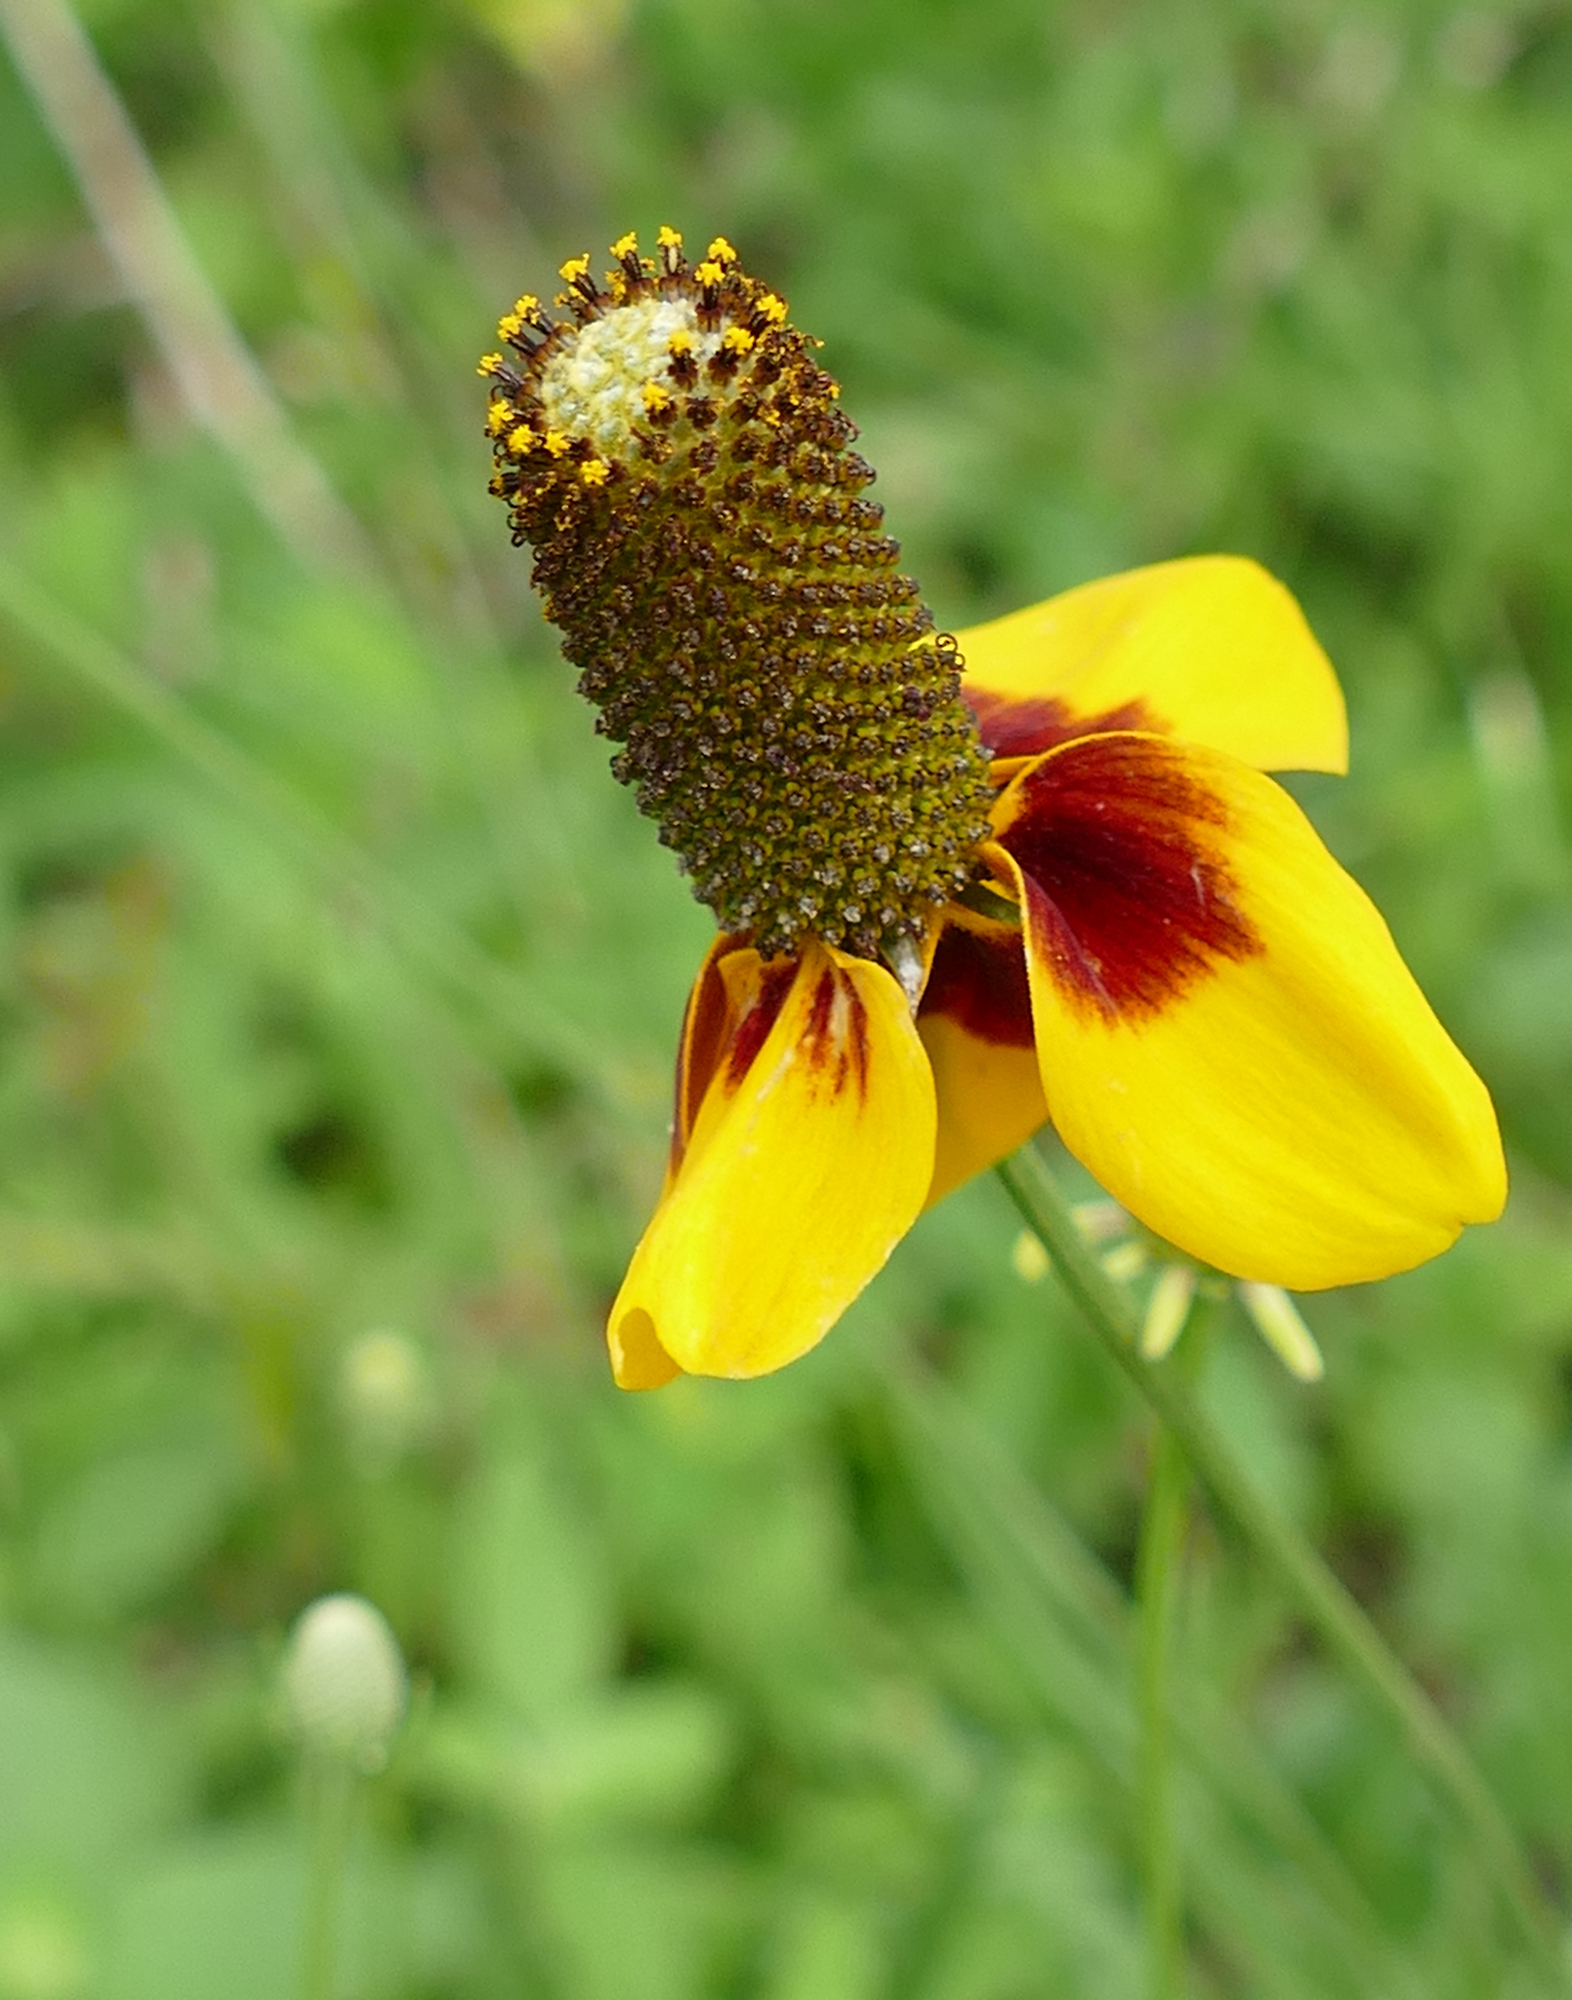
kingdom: Plantae
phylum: Tracheophyta
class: Magnoliopsida
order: Asterales
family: Asteraceae
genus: Ratibida
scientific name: Ratibida columnifera
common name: Prairie coneflower
